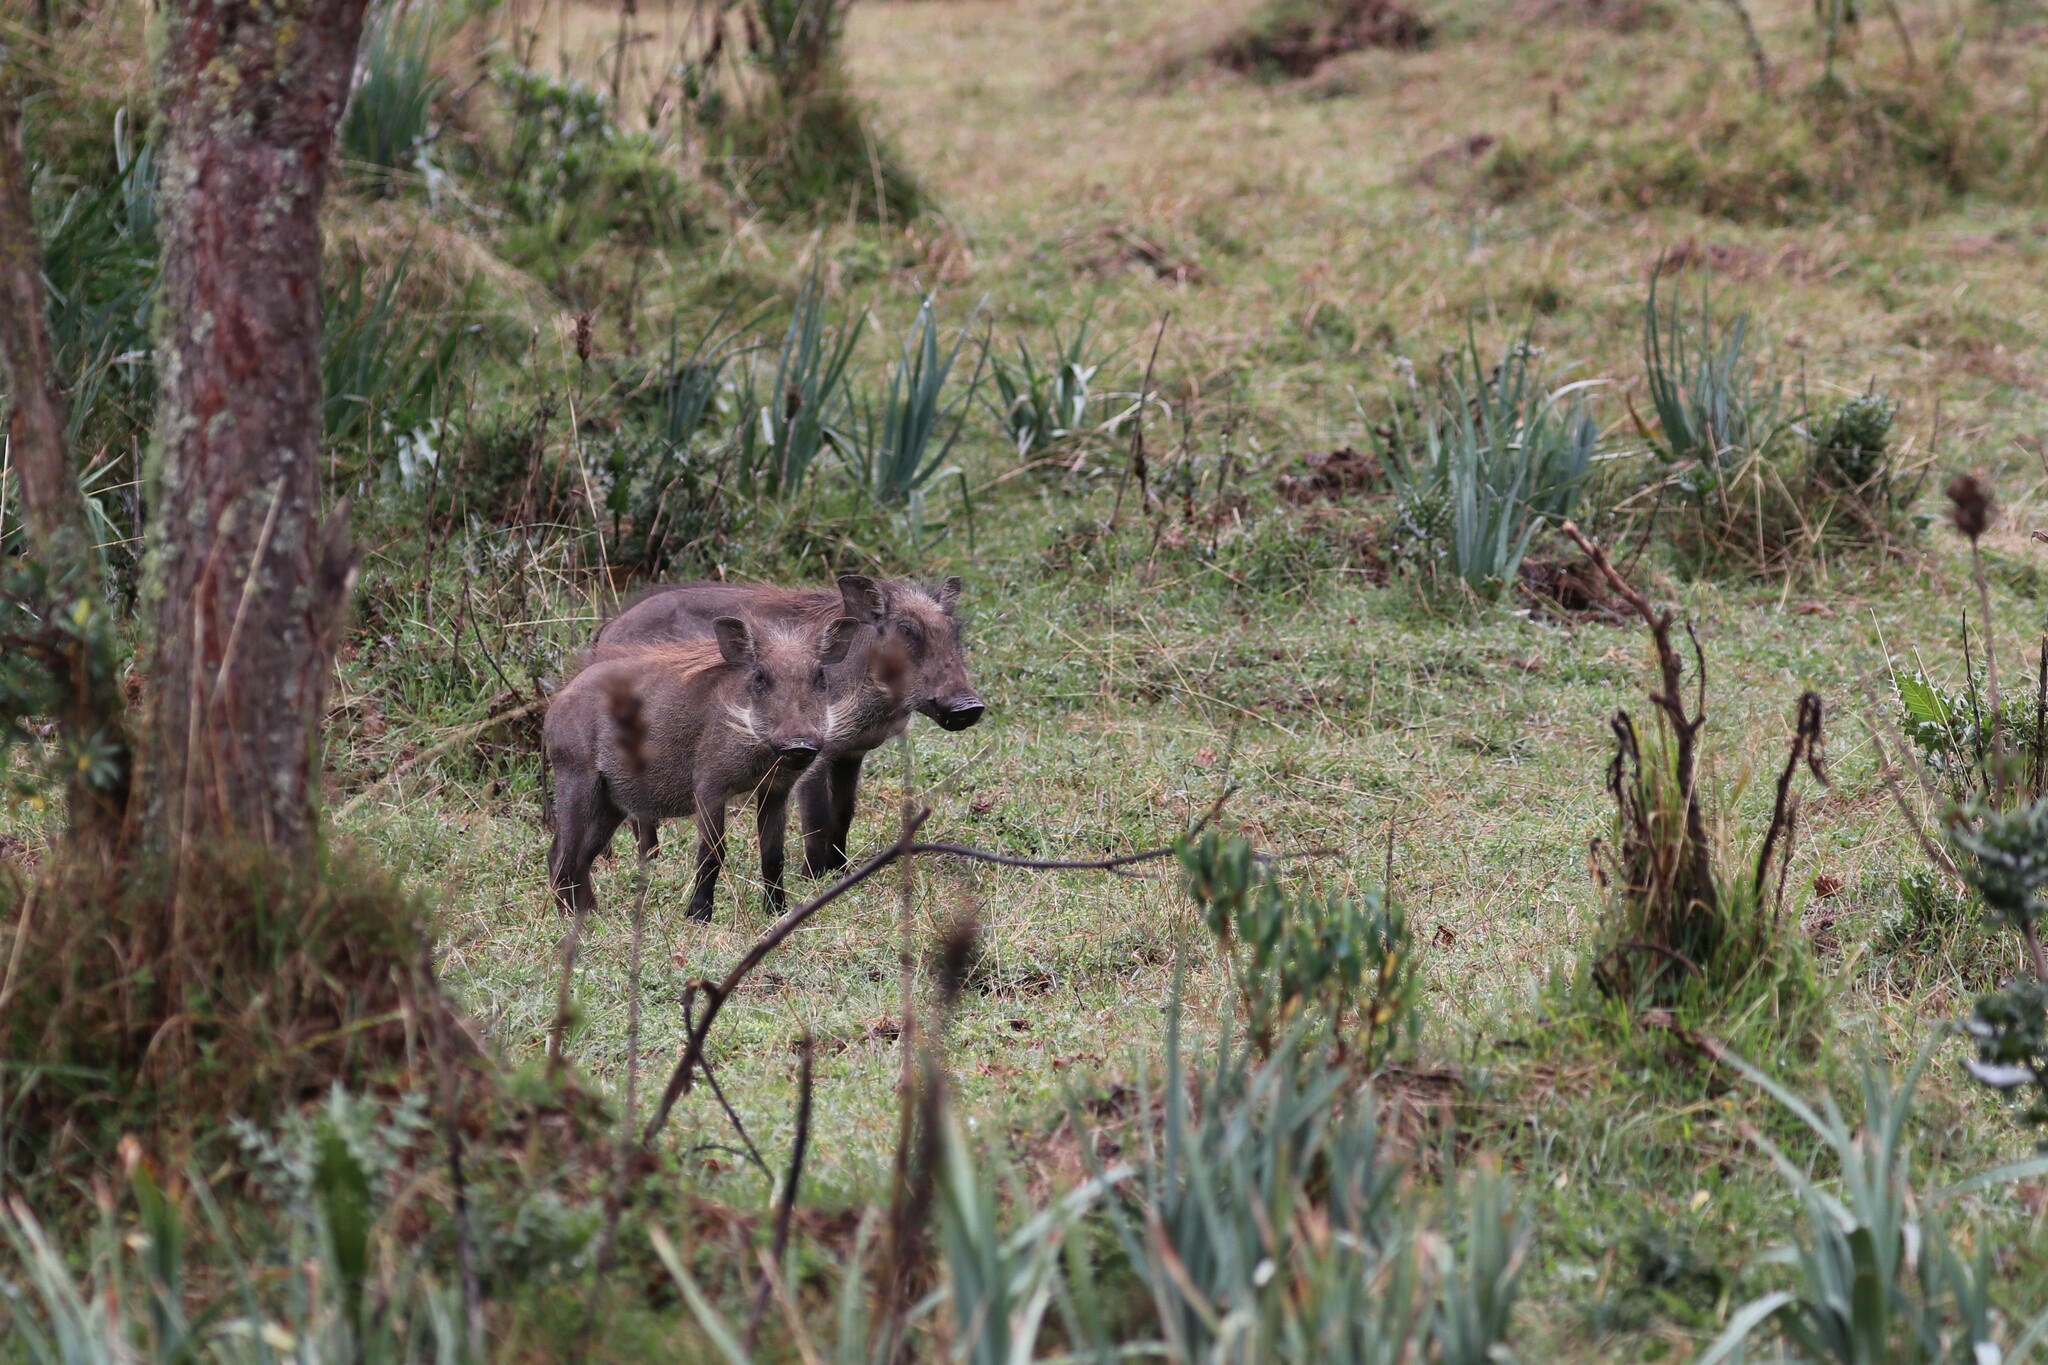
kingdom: Animalia
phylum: Chordata
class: Mammalia
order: Artiodactyla
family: Suidae
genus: Phacochoerus
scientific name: Phacochoerus africanus
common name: Common warthog
